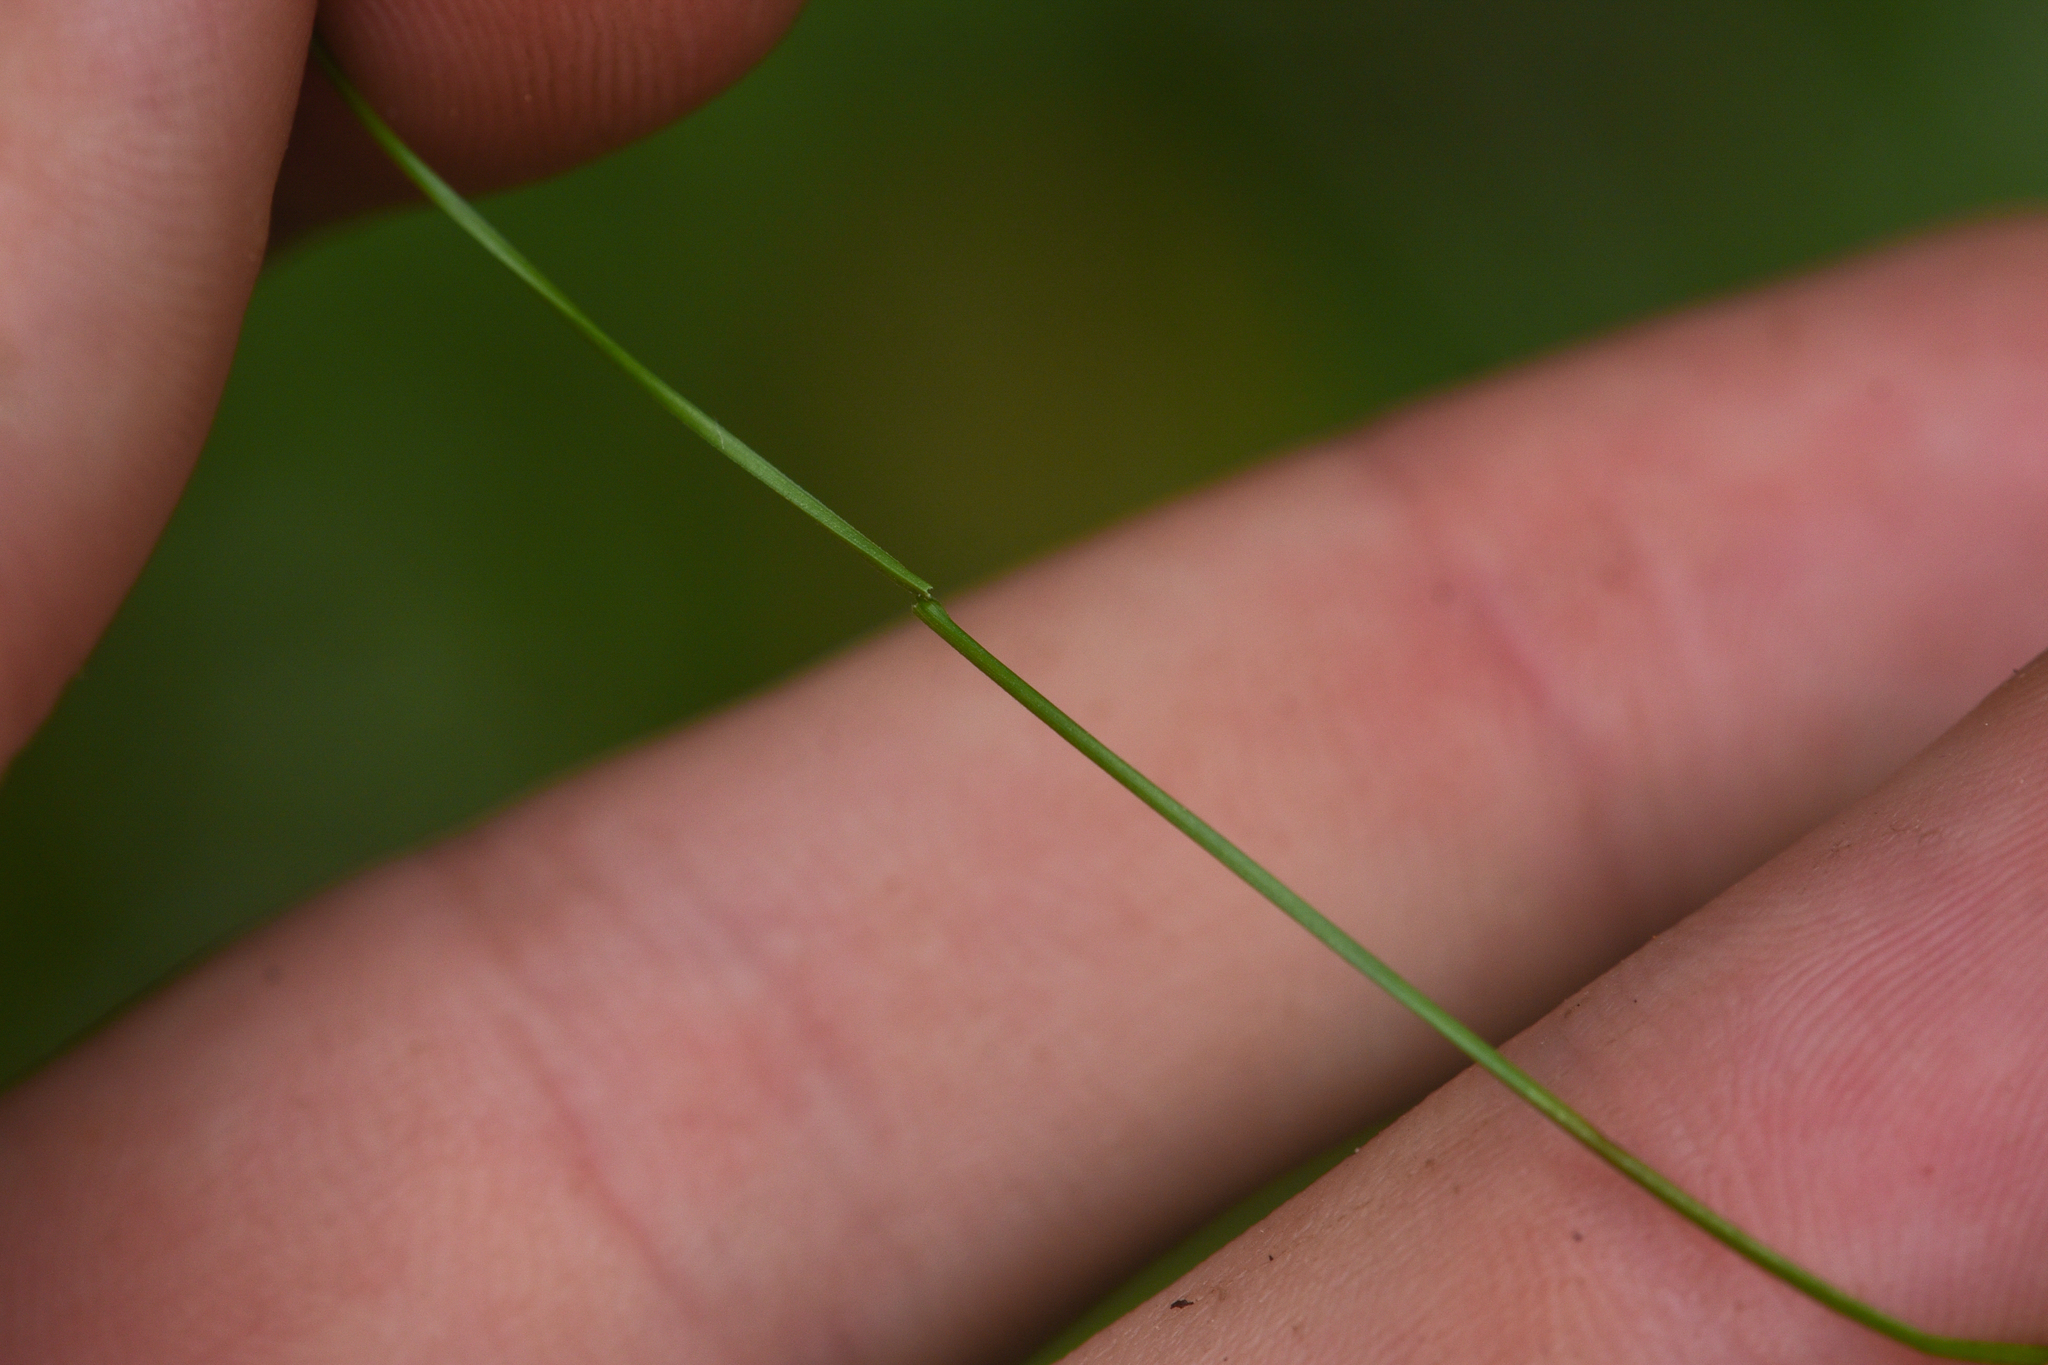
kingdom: Plantae
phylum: Tracheophyta
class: Liliopsida
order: Poales
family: Cyperaceae
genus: Carex
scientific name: Carex disperma
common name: Short-leaved sedge
